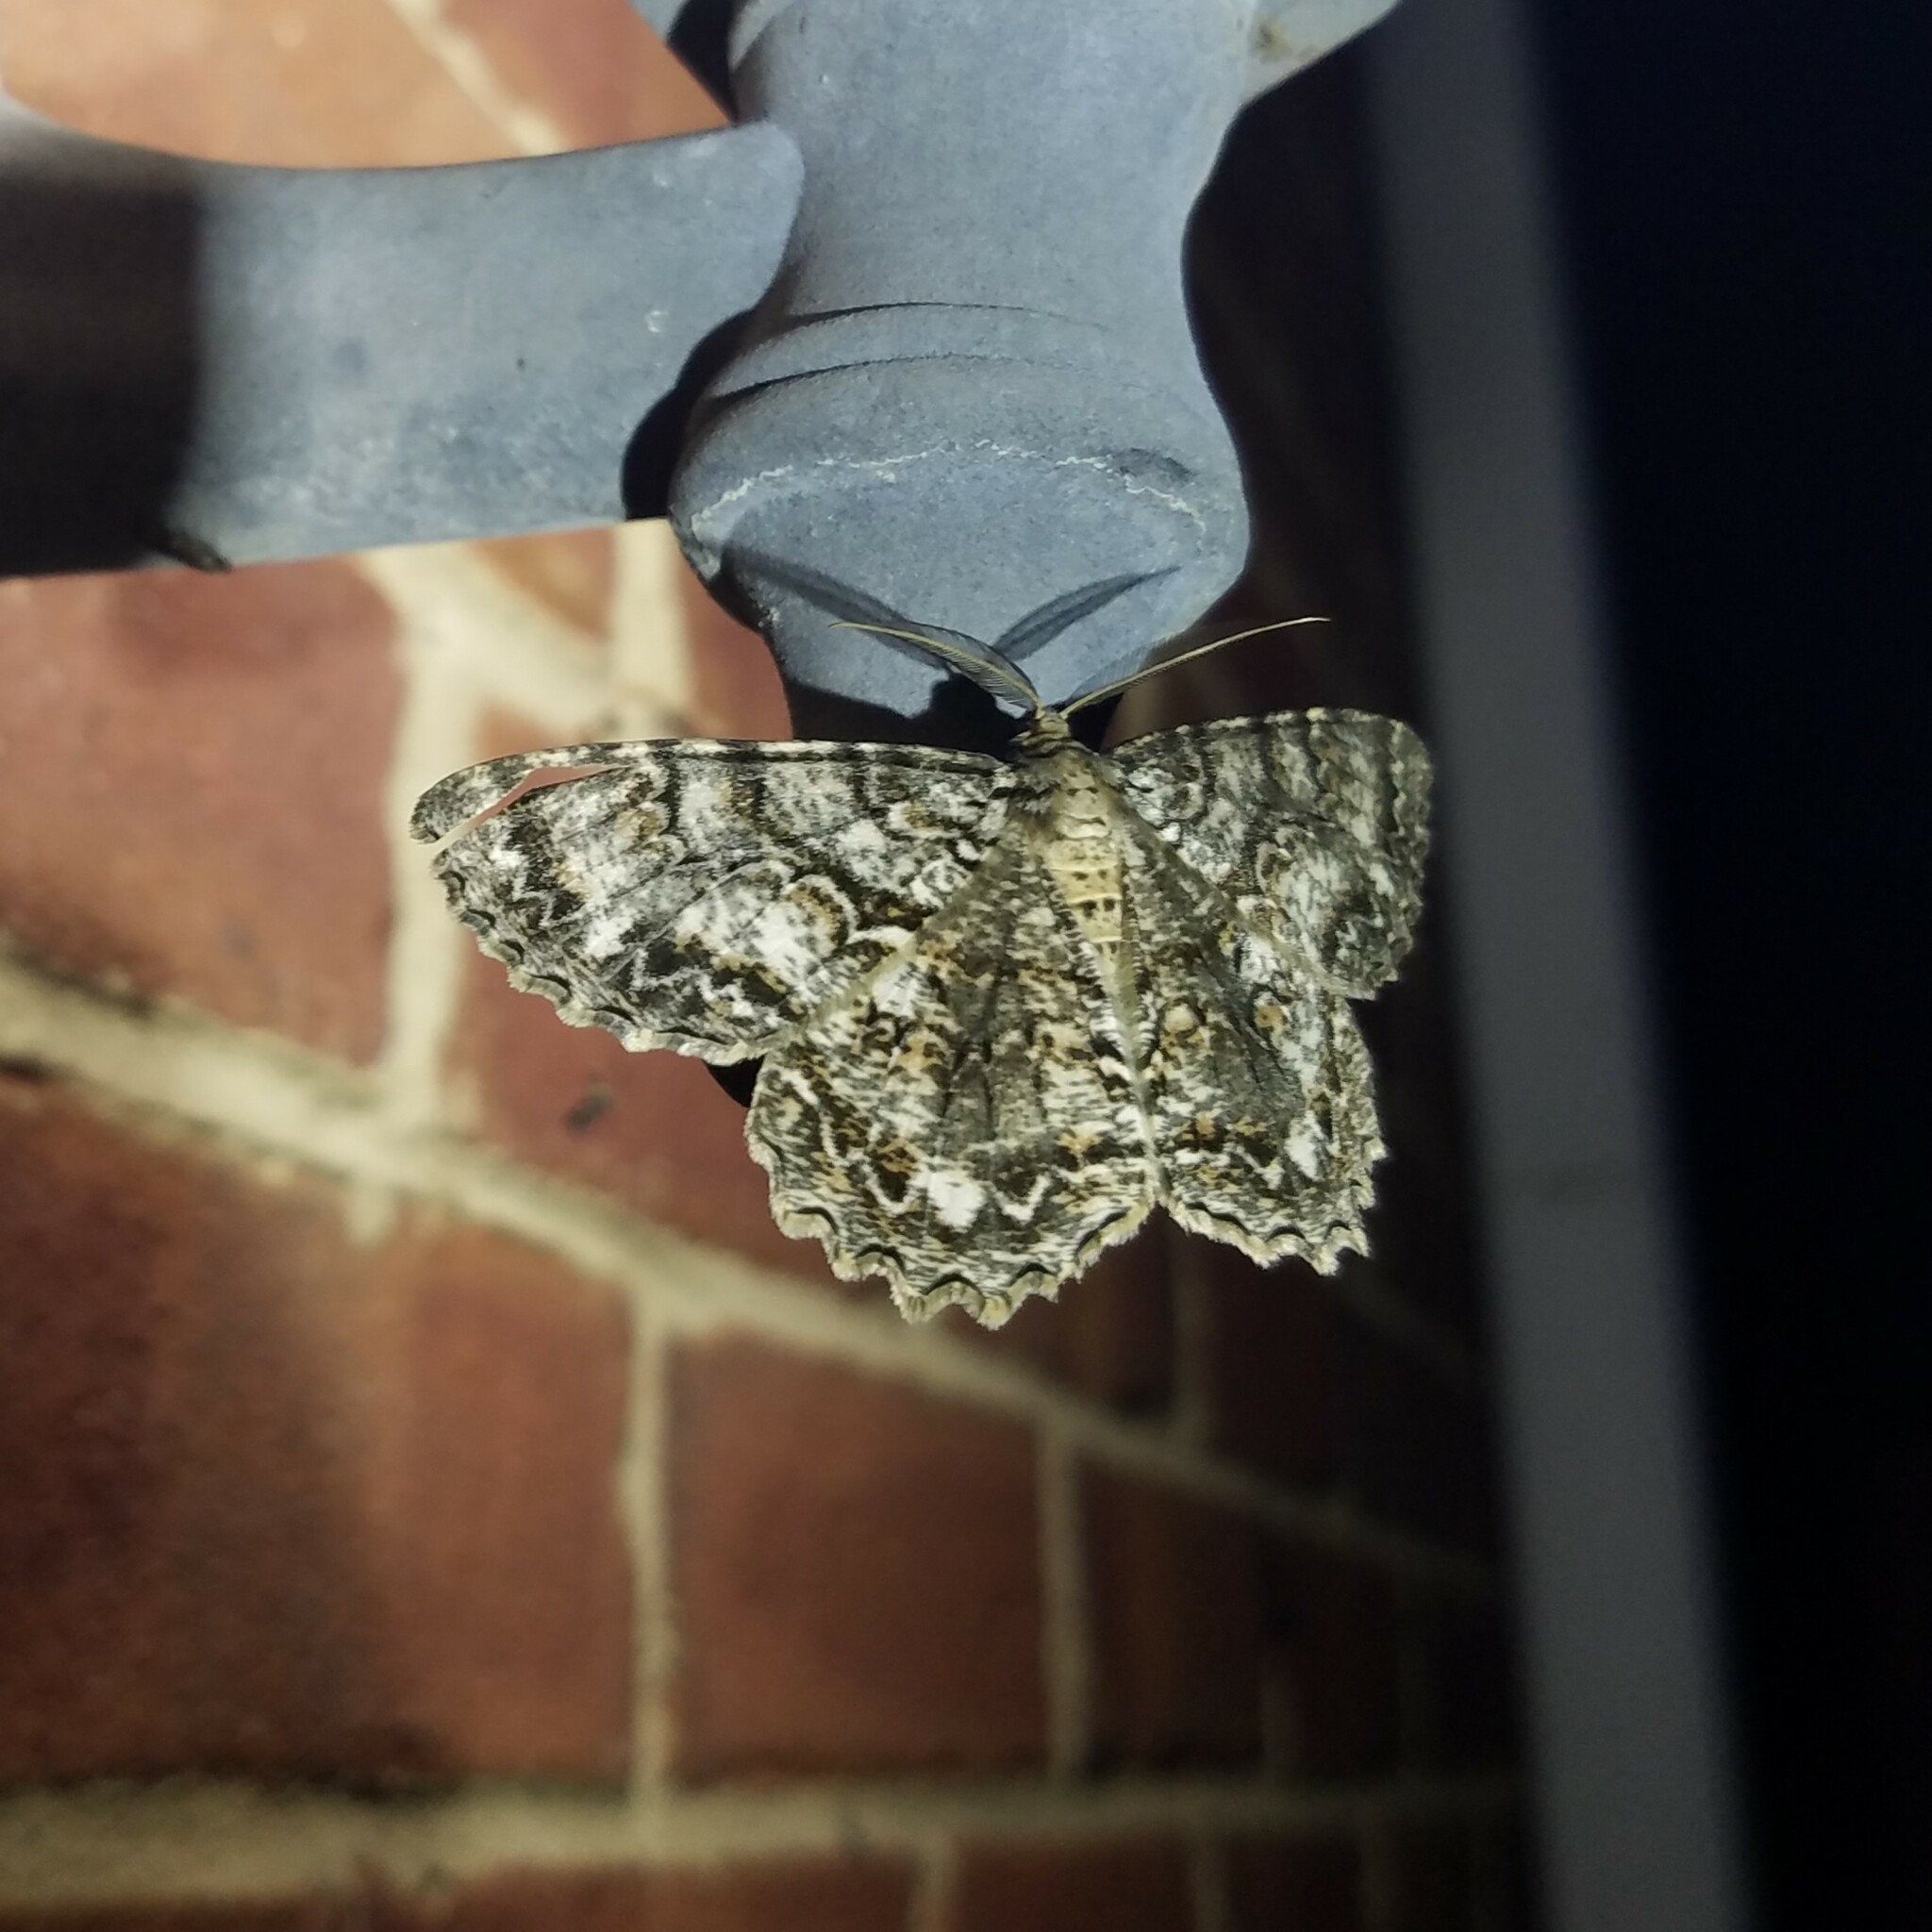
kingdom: Animalia
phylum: Arthropoda
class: Insecta
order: Lepidoptera
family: Geometridae
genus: Epimecis
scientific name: Epimecis hortaria
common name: Tulip-tree beauty
